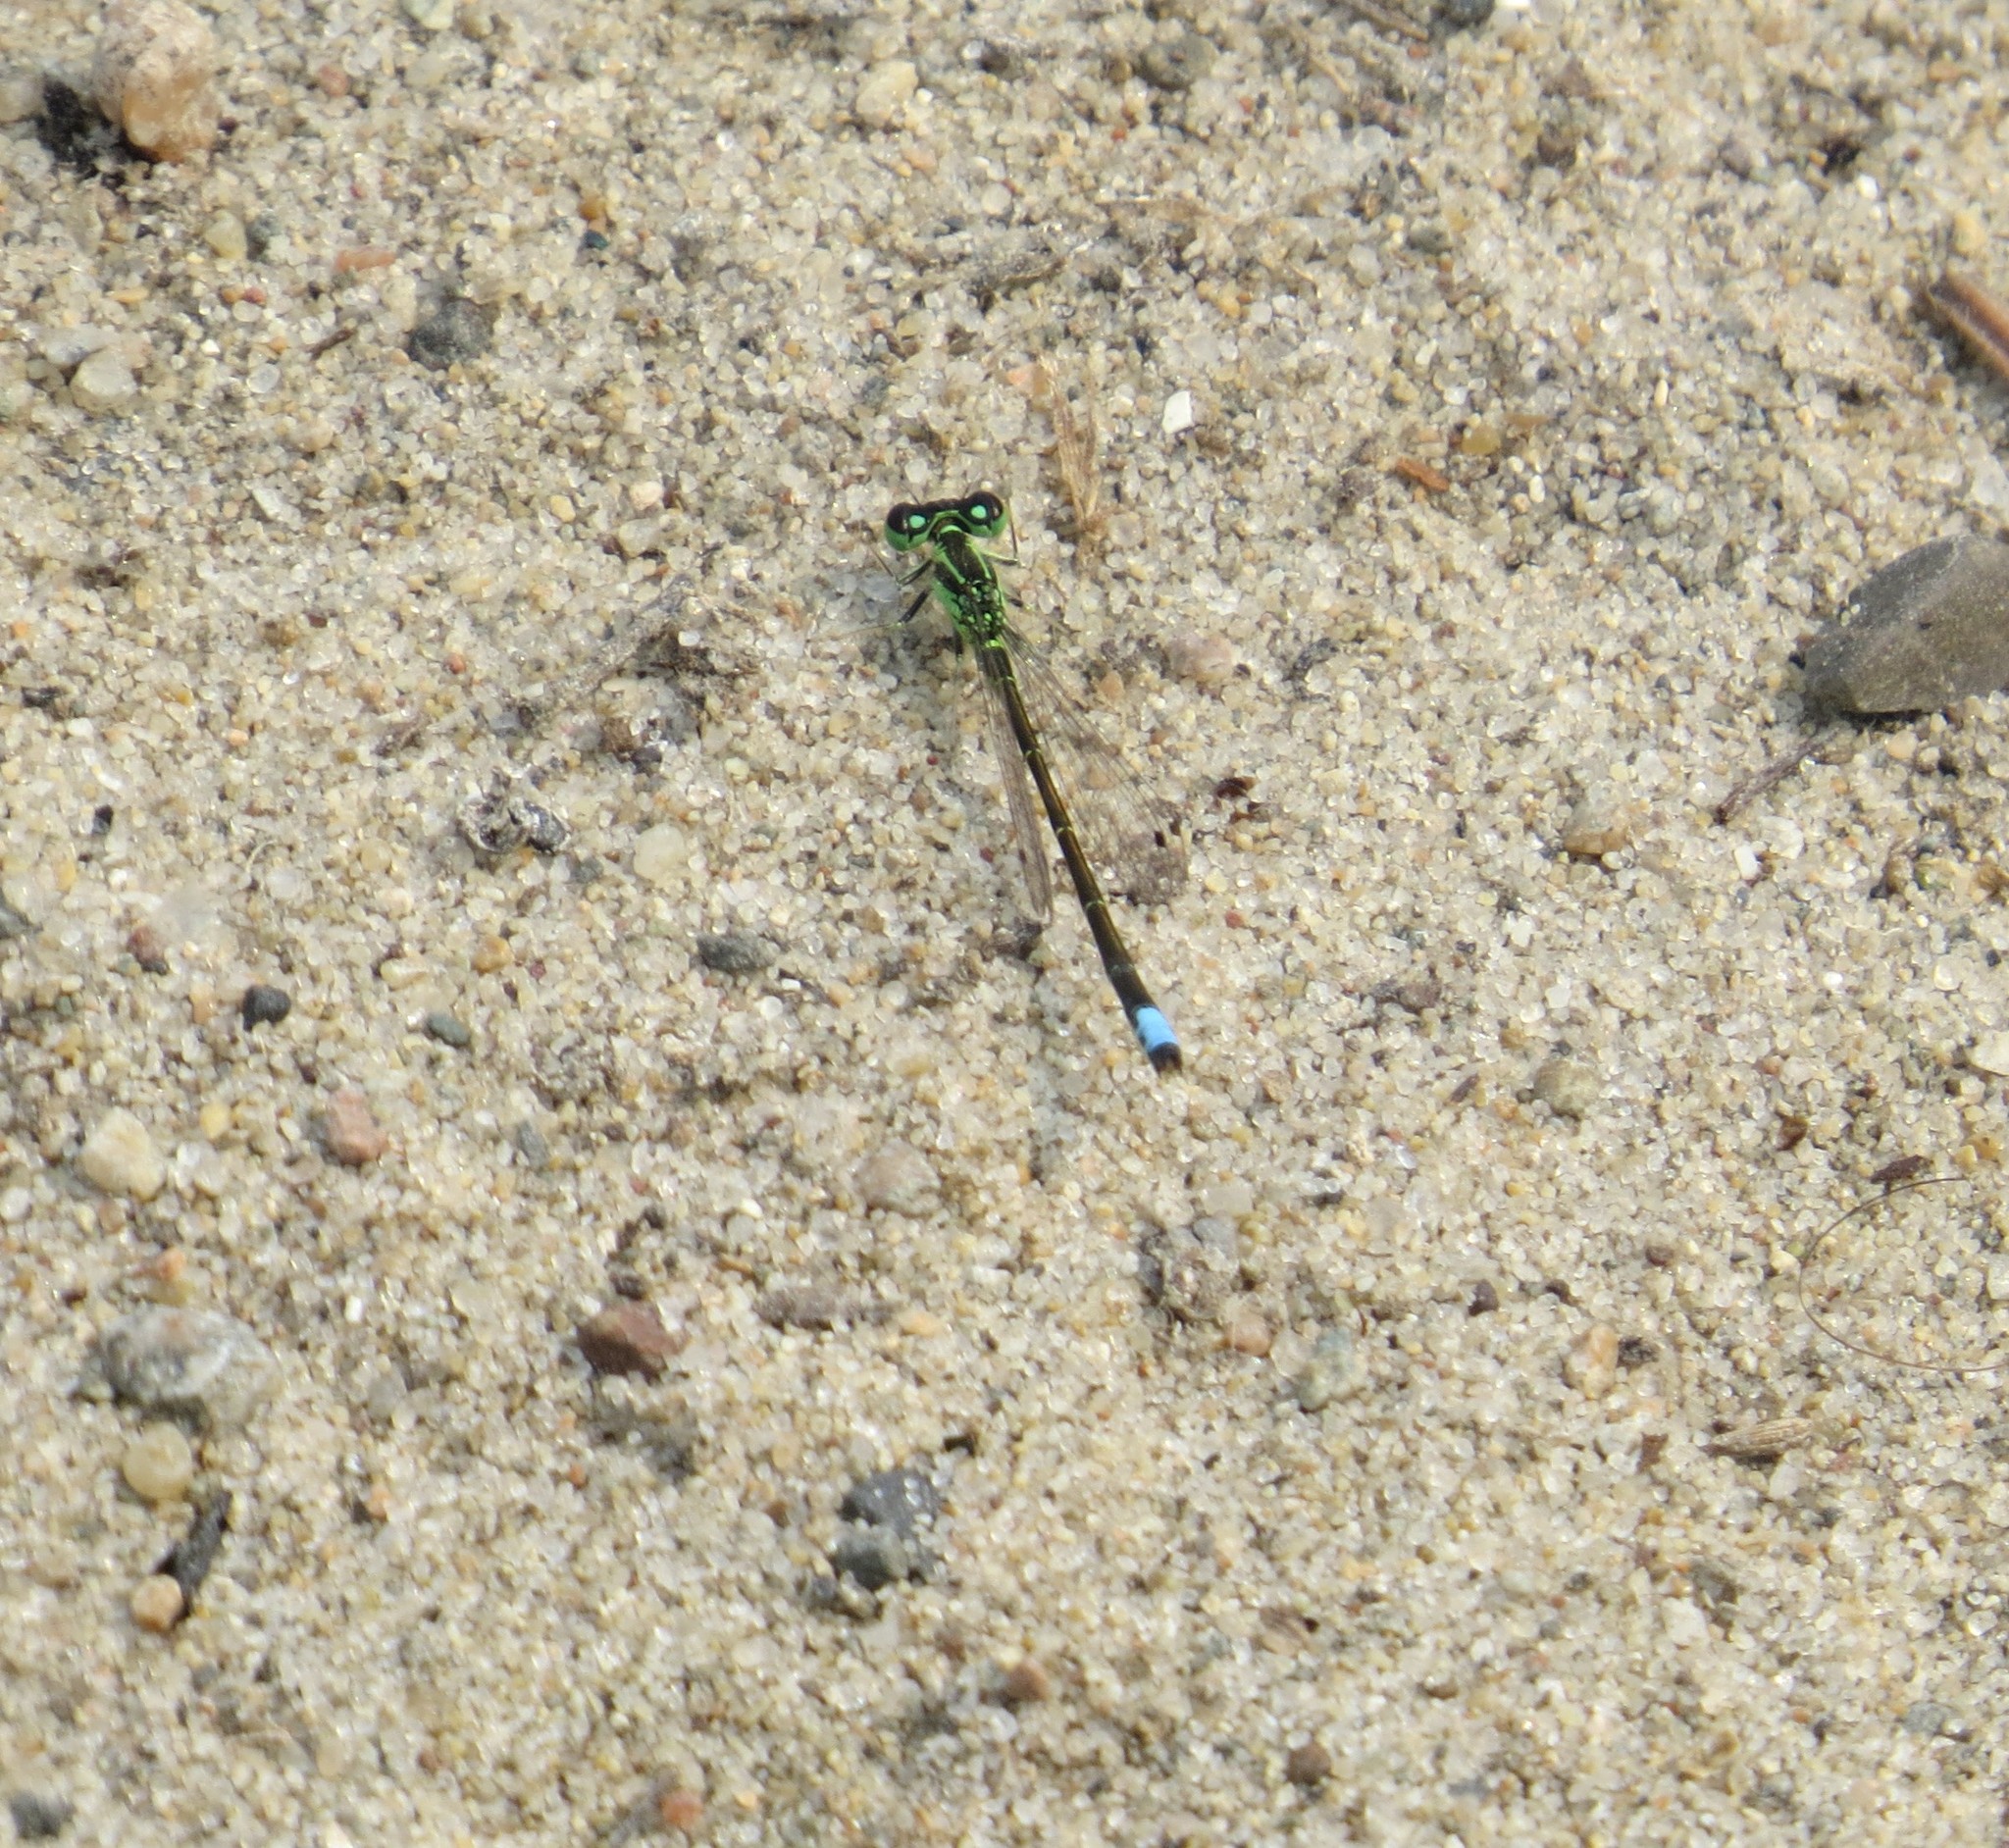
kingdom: Animalia
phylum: Arthropoda
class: Insecta
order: Odonata
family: Coenagrionidae
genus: Ischnura
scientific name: Ischnura verticalis
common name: Eastern forktail
